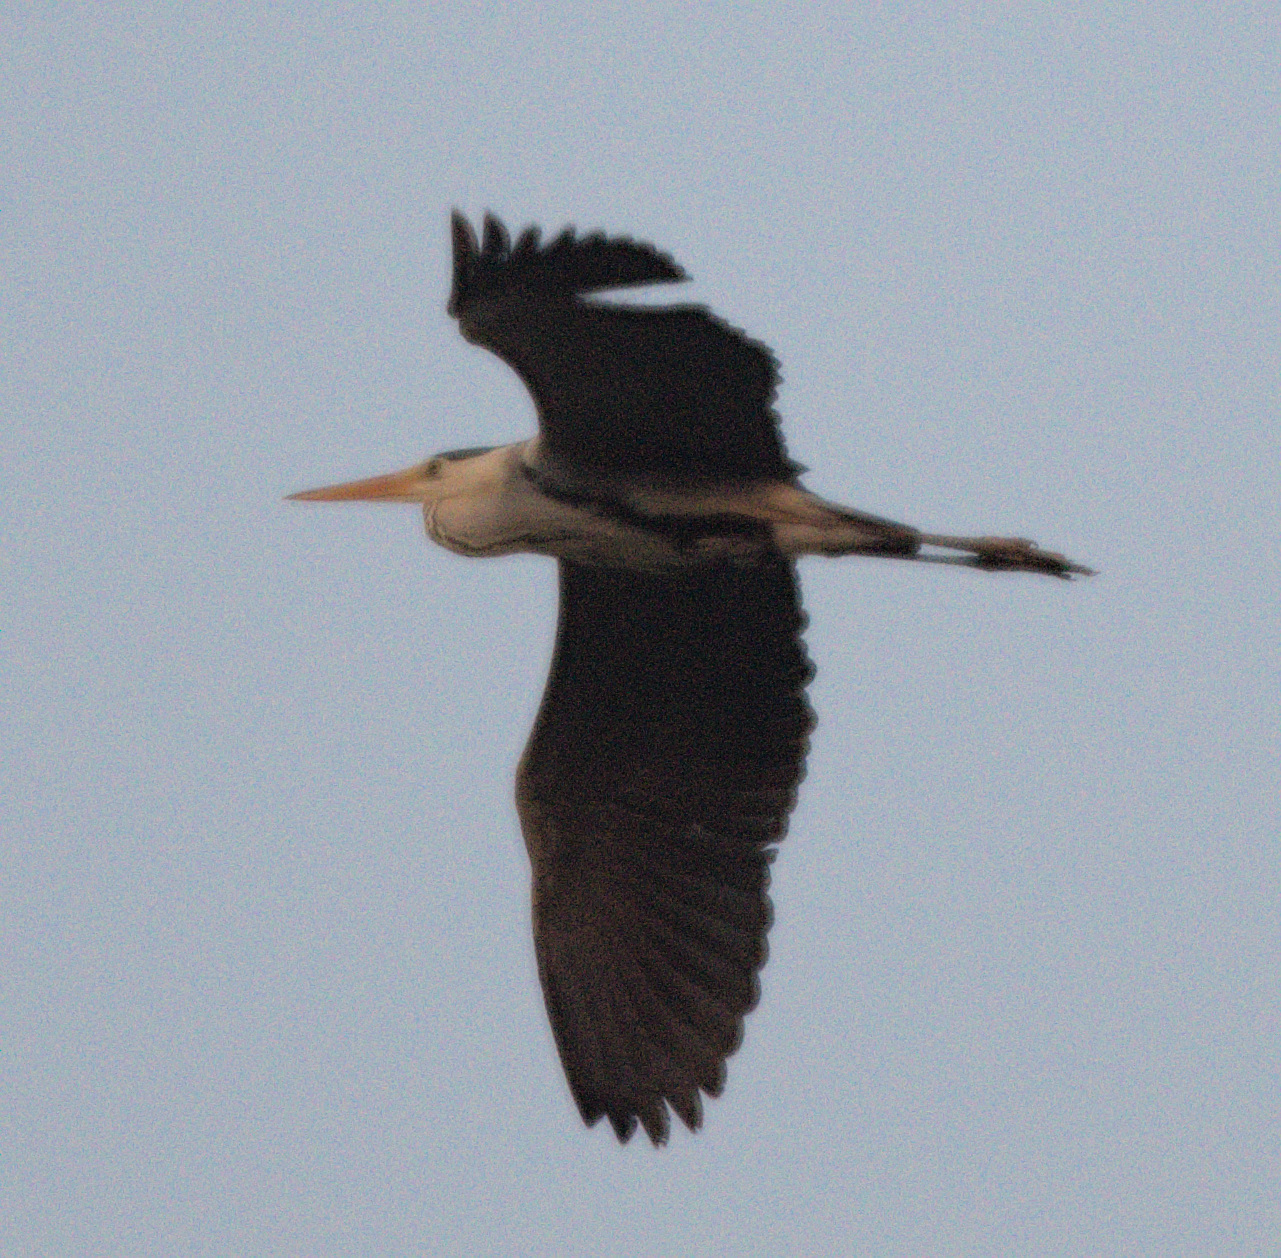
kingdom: Animalia
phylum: Chordata
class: Aves
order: Pelecaniformes
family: Ardeidae
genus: Ardea
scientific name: Ardea cinerea
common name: Grey heron
